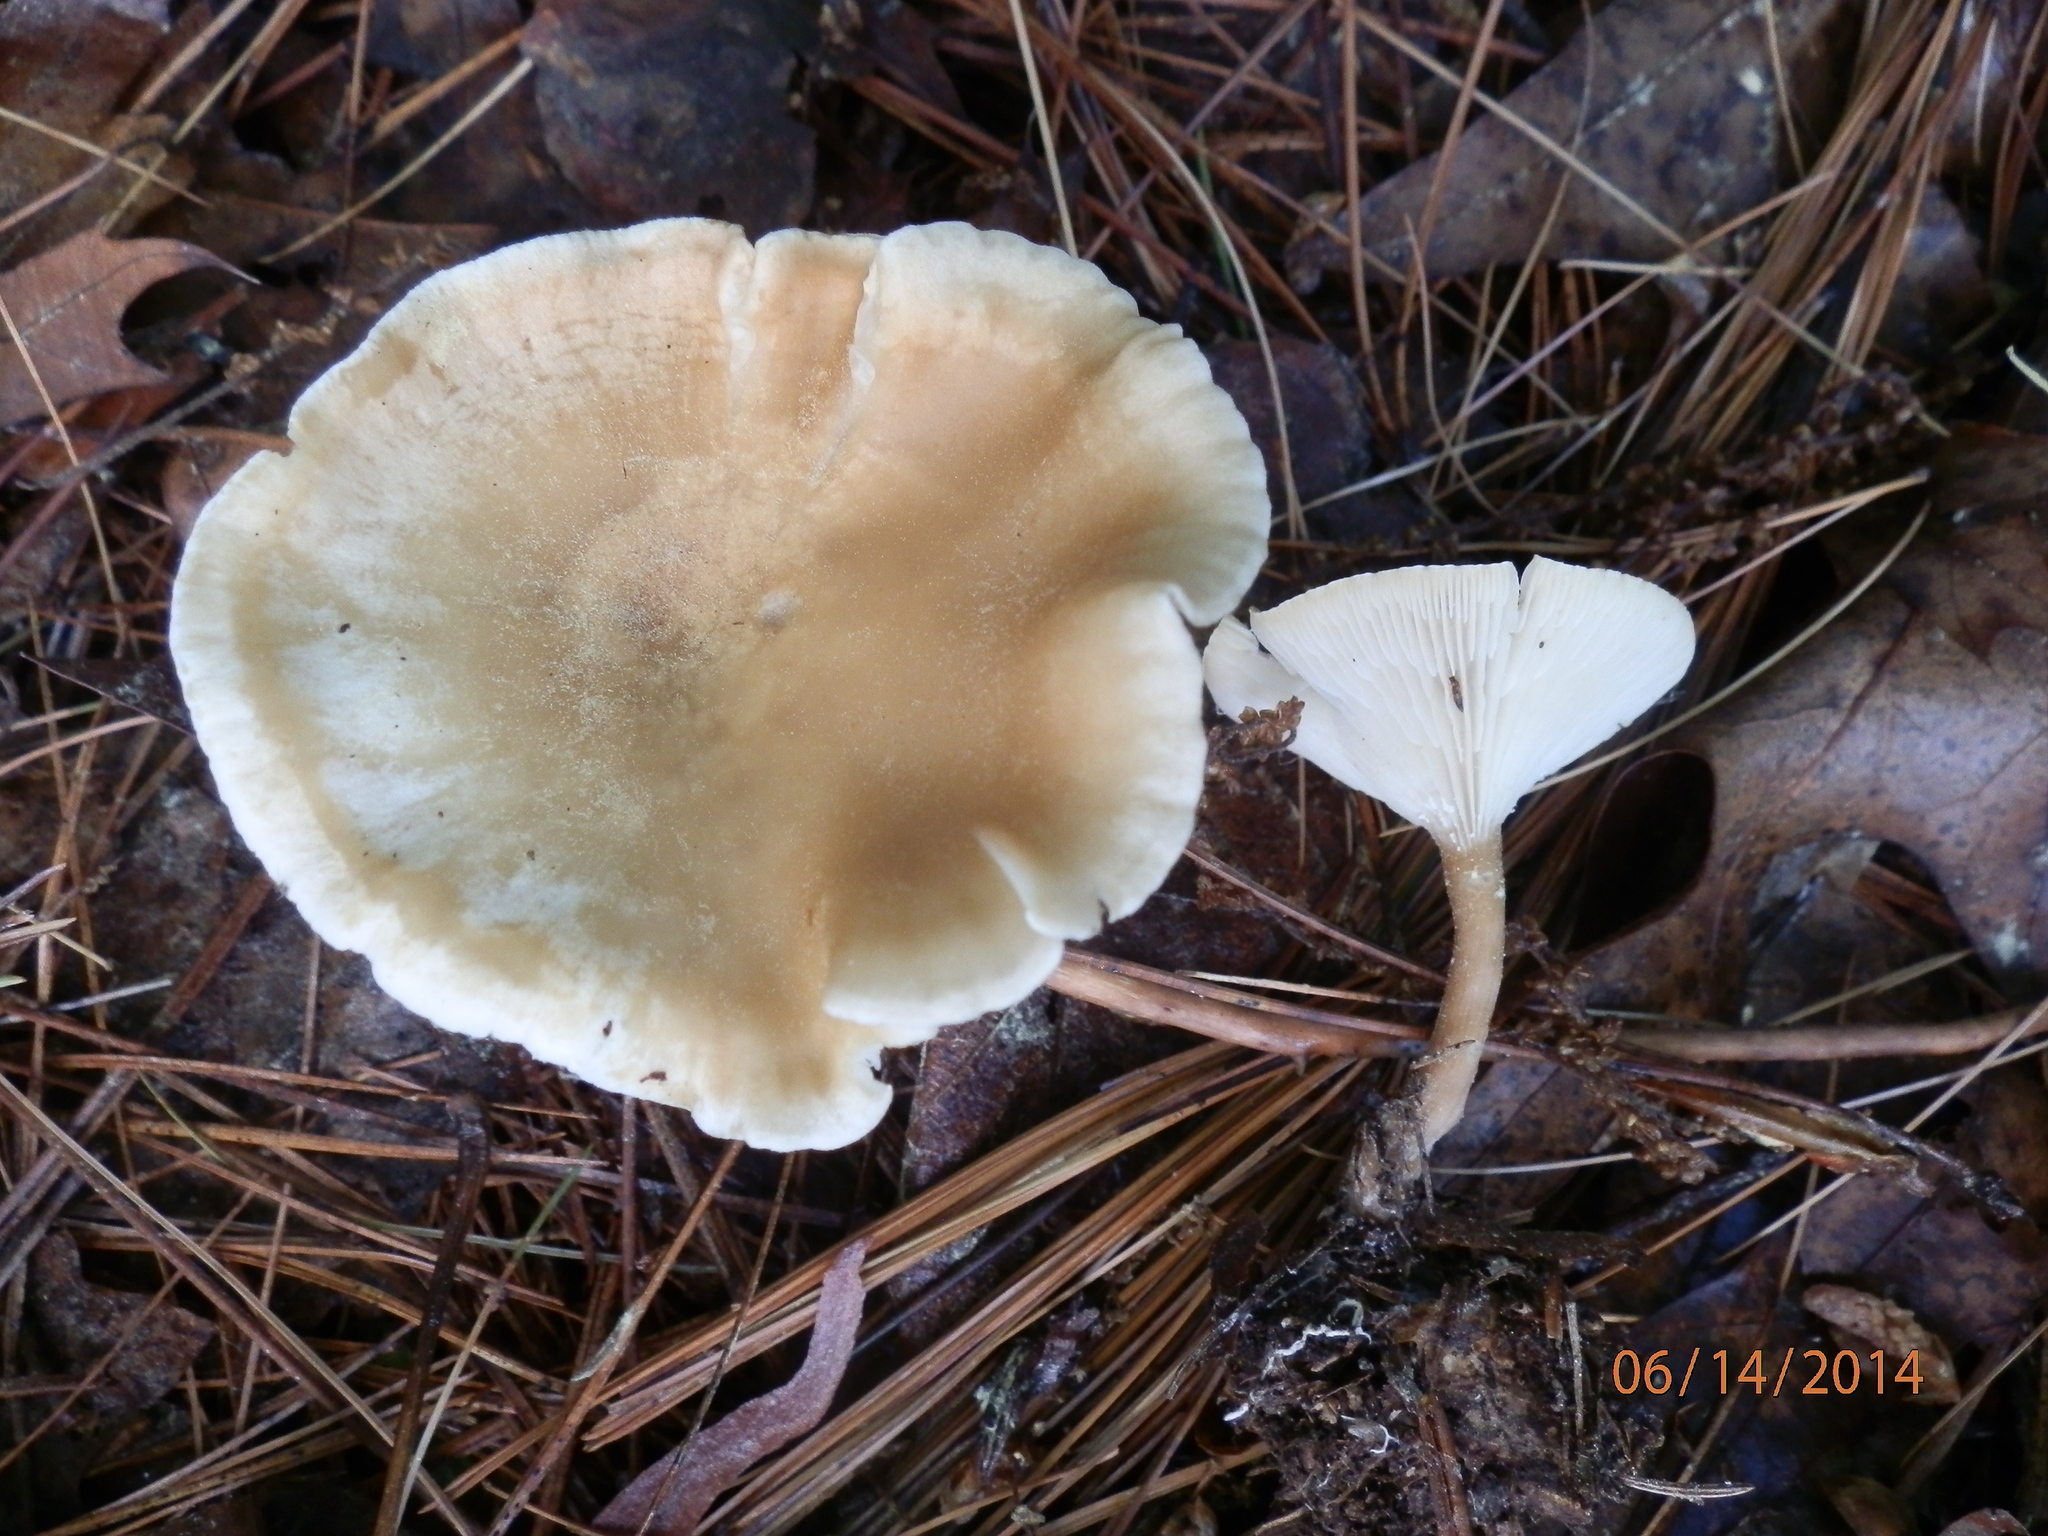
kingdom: Fungi
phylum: Basidiomycota
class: Agaricomycetes
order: Agaricales
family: Tricholomataceae
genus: Infundibulicybe
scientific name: Infundibulicybe squamulosa
